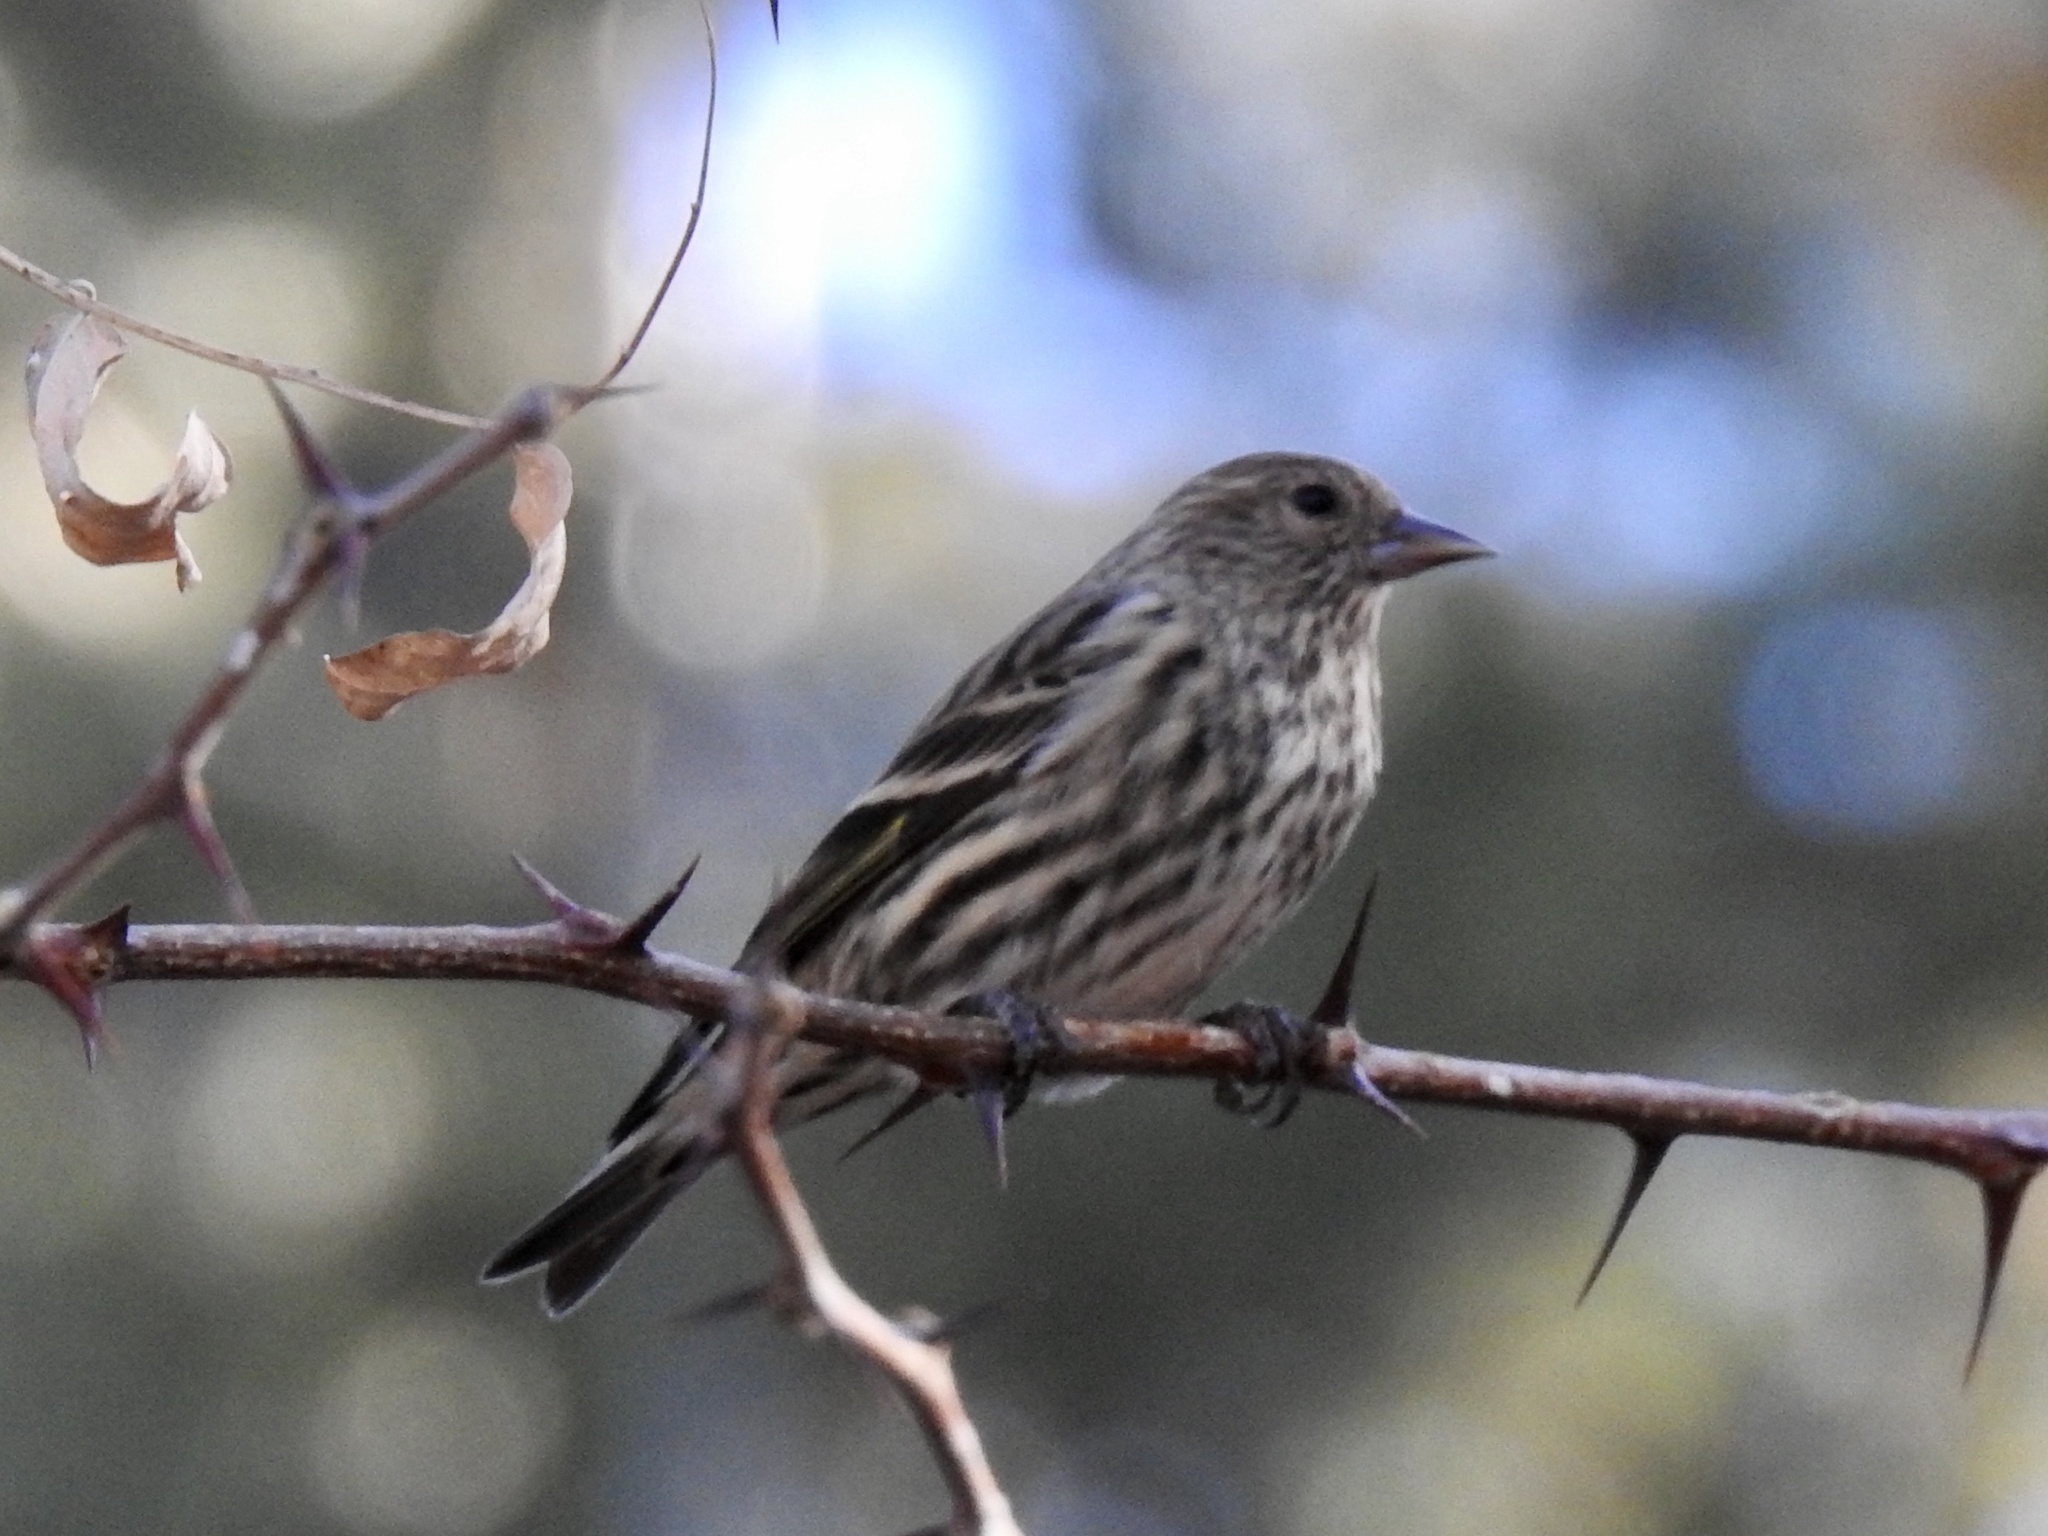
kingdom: Animalia
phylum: Chordata
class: Aves
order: Passeriformes
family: Fringillidae
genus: Spinus
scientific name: Spinus pinus
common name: Pine siskin
